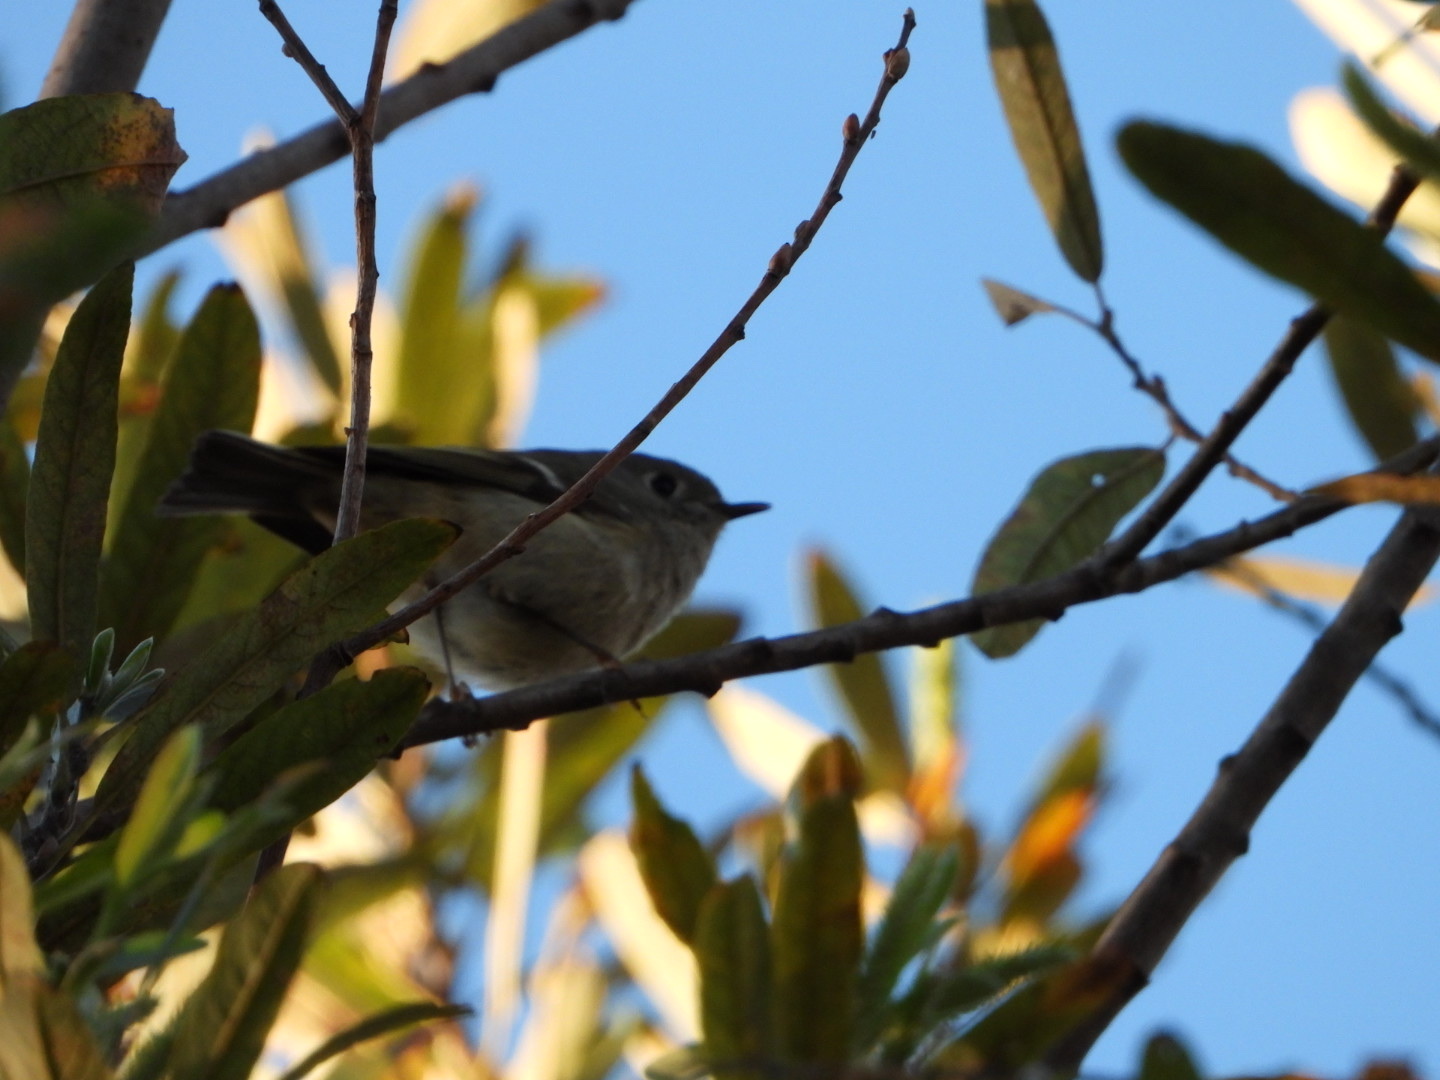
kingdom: Animalia
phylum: Chordata
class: Aves
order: Passeriformes
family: Regulidae
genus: Regulus
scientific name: Regulus calendula
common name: Ruby-crowned kinglet
